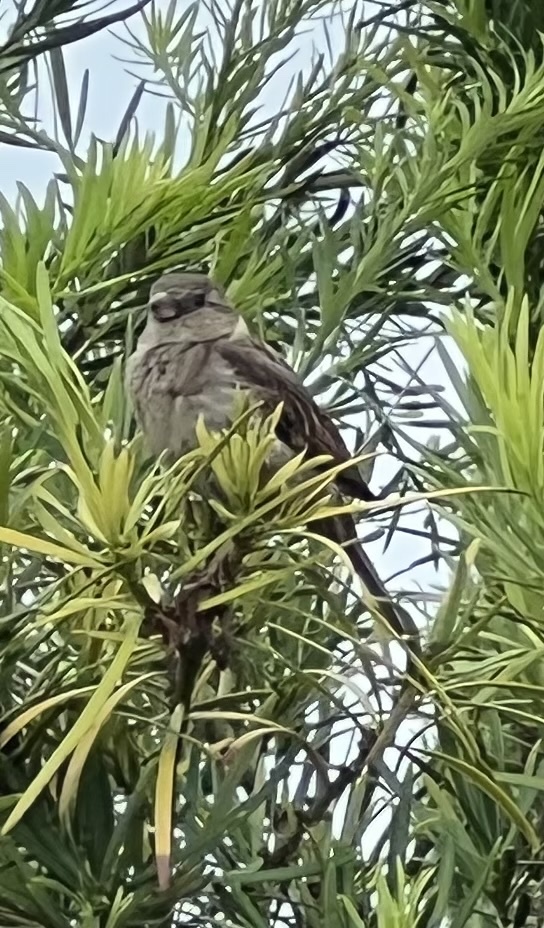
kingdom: Animalia
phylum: Chordata
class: Aves
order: Passeriformes
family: Passeridae
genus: Passer
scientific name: Passer domesticus
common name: House sparrow
